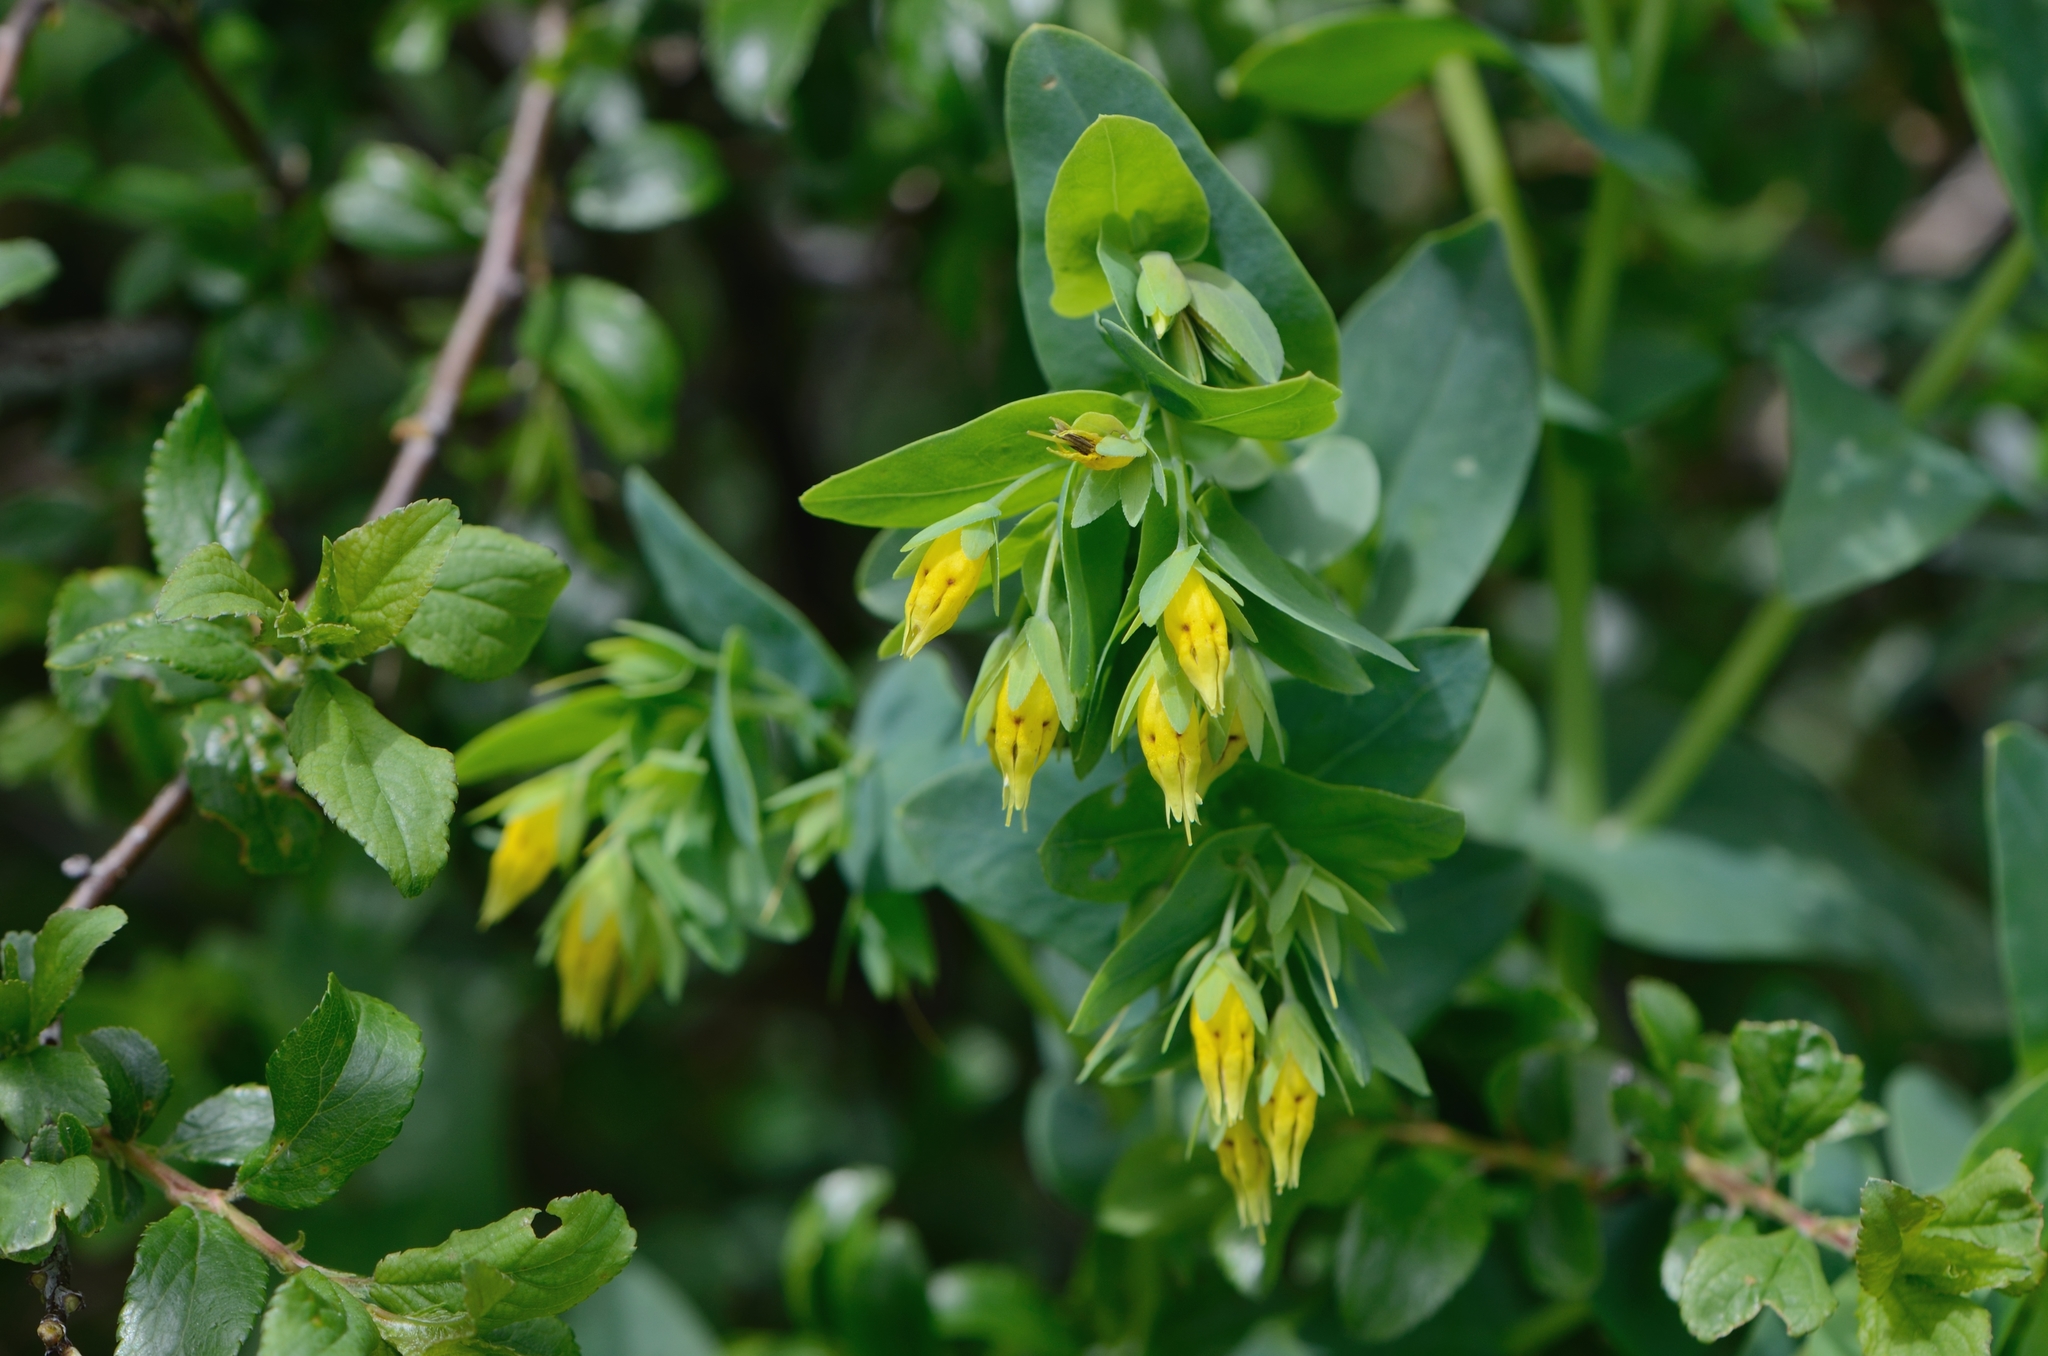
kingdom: Plantae
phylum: Tracheophyta
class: Magnoliopsida
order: Boraginales
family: Boraginaceae
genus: Cerinthe
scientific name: Cerinthe minor
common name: Lesser honeywort
